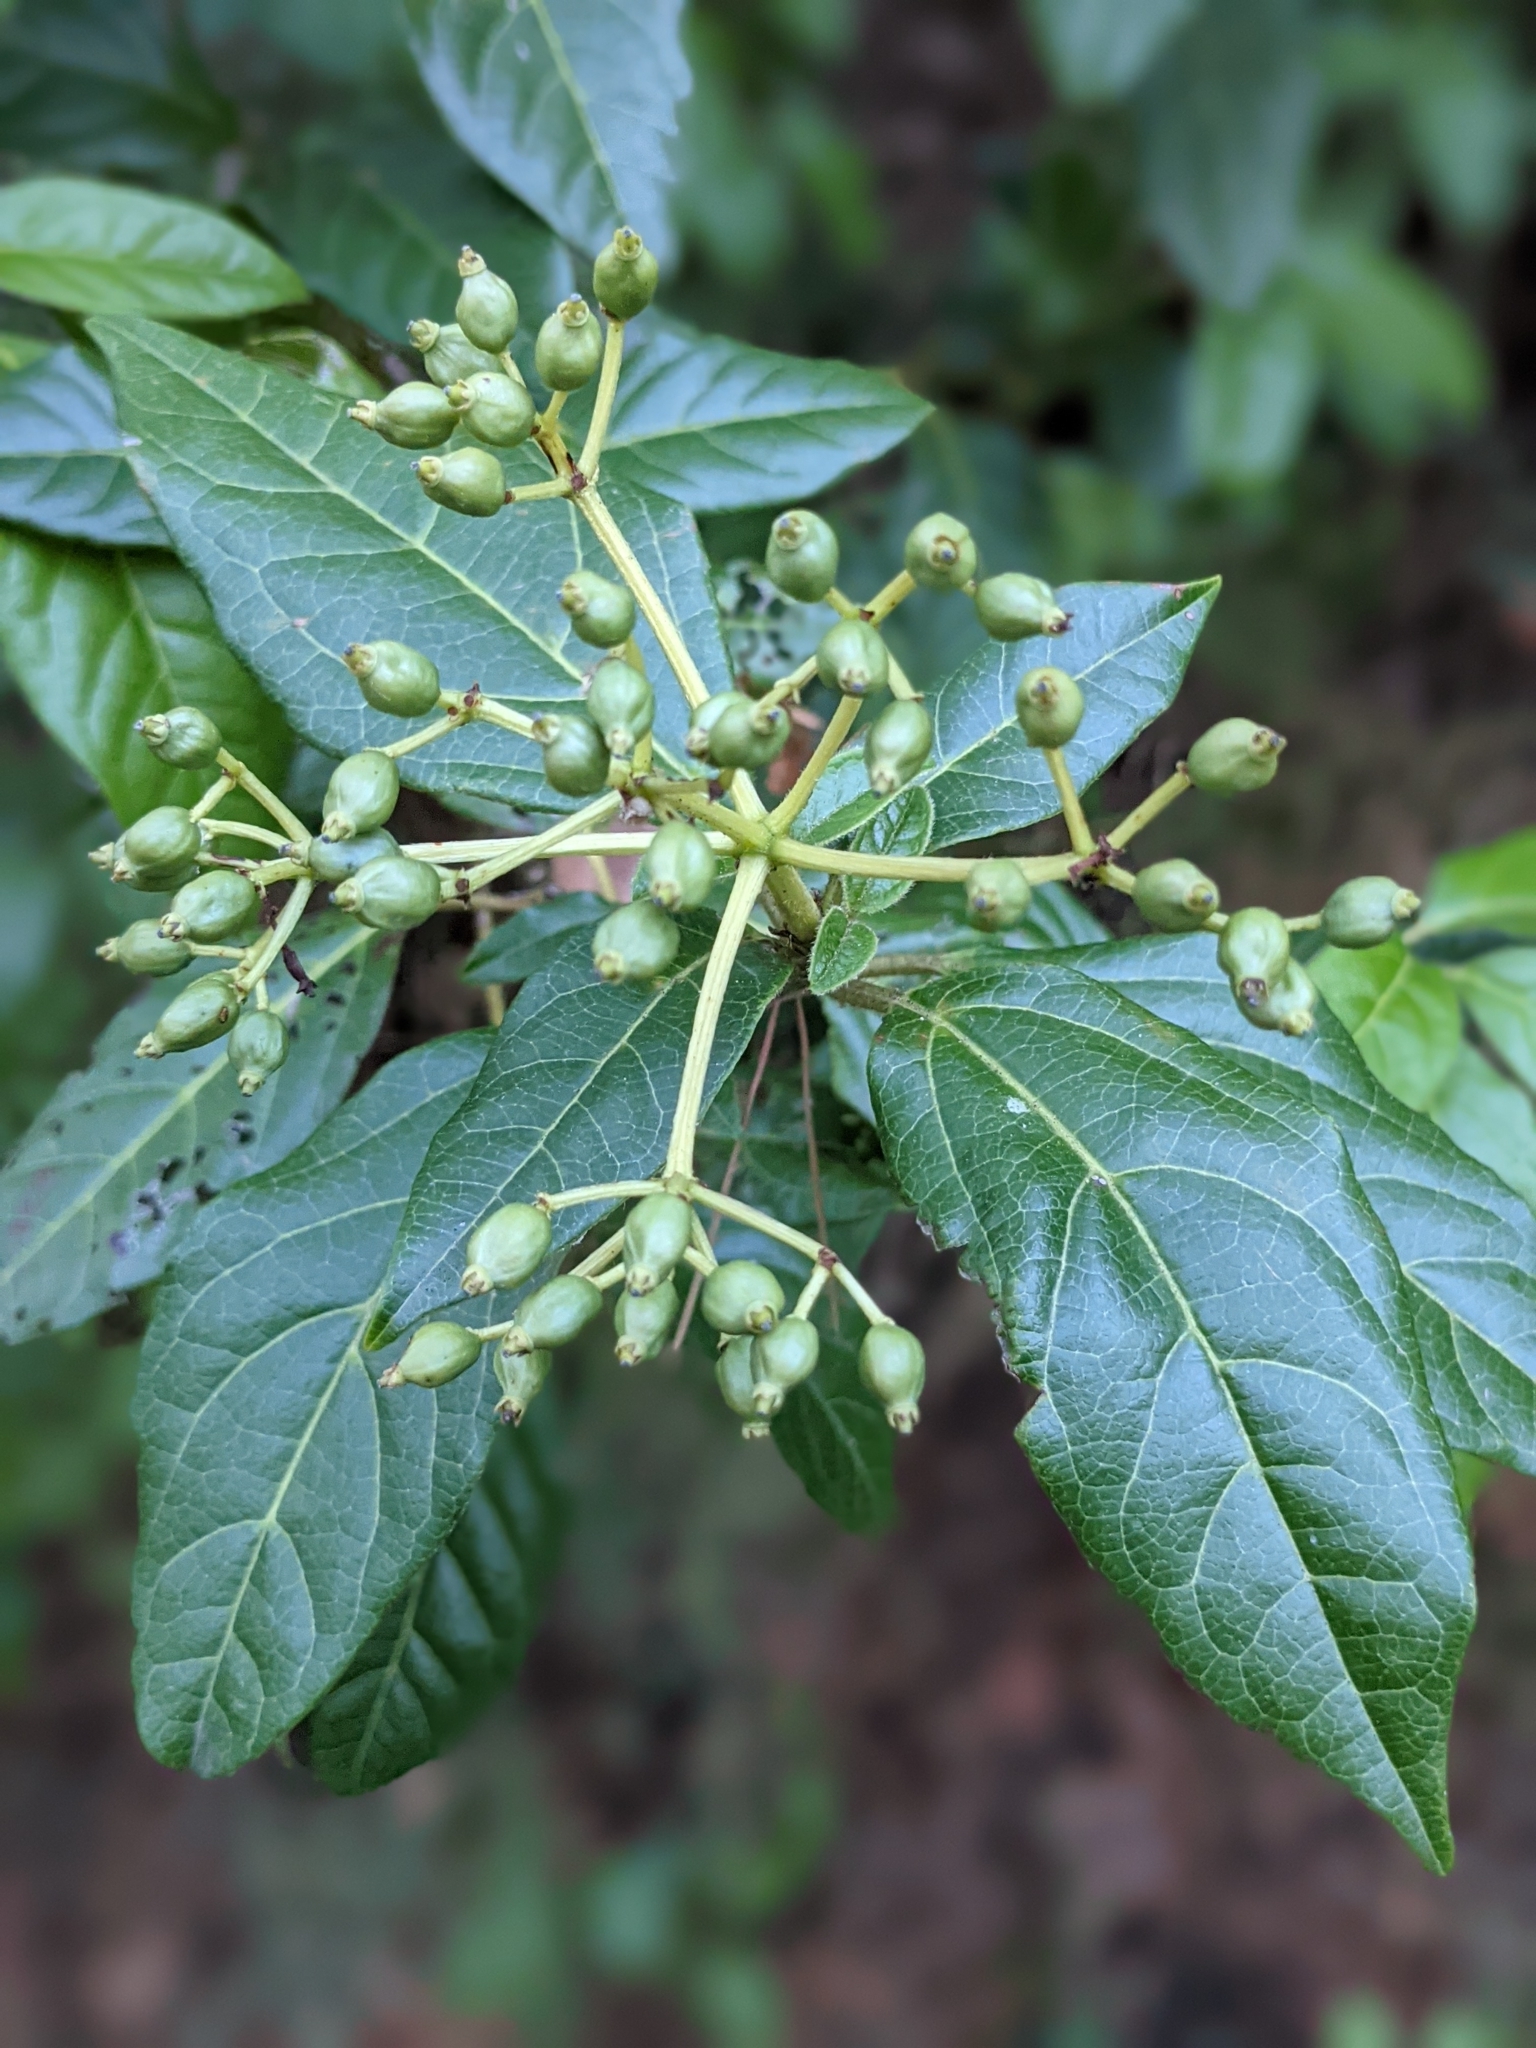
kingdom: Plantae
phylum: Tracheophyta
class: Magnoliopsida
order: Dipsacales
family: Viburnaceae
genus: Viburnum
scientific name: Viburnum tinus
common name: Laurustinus
